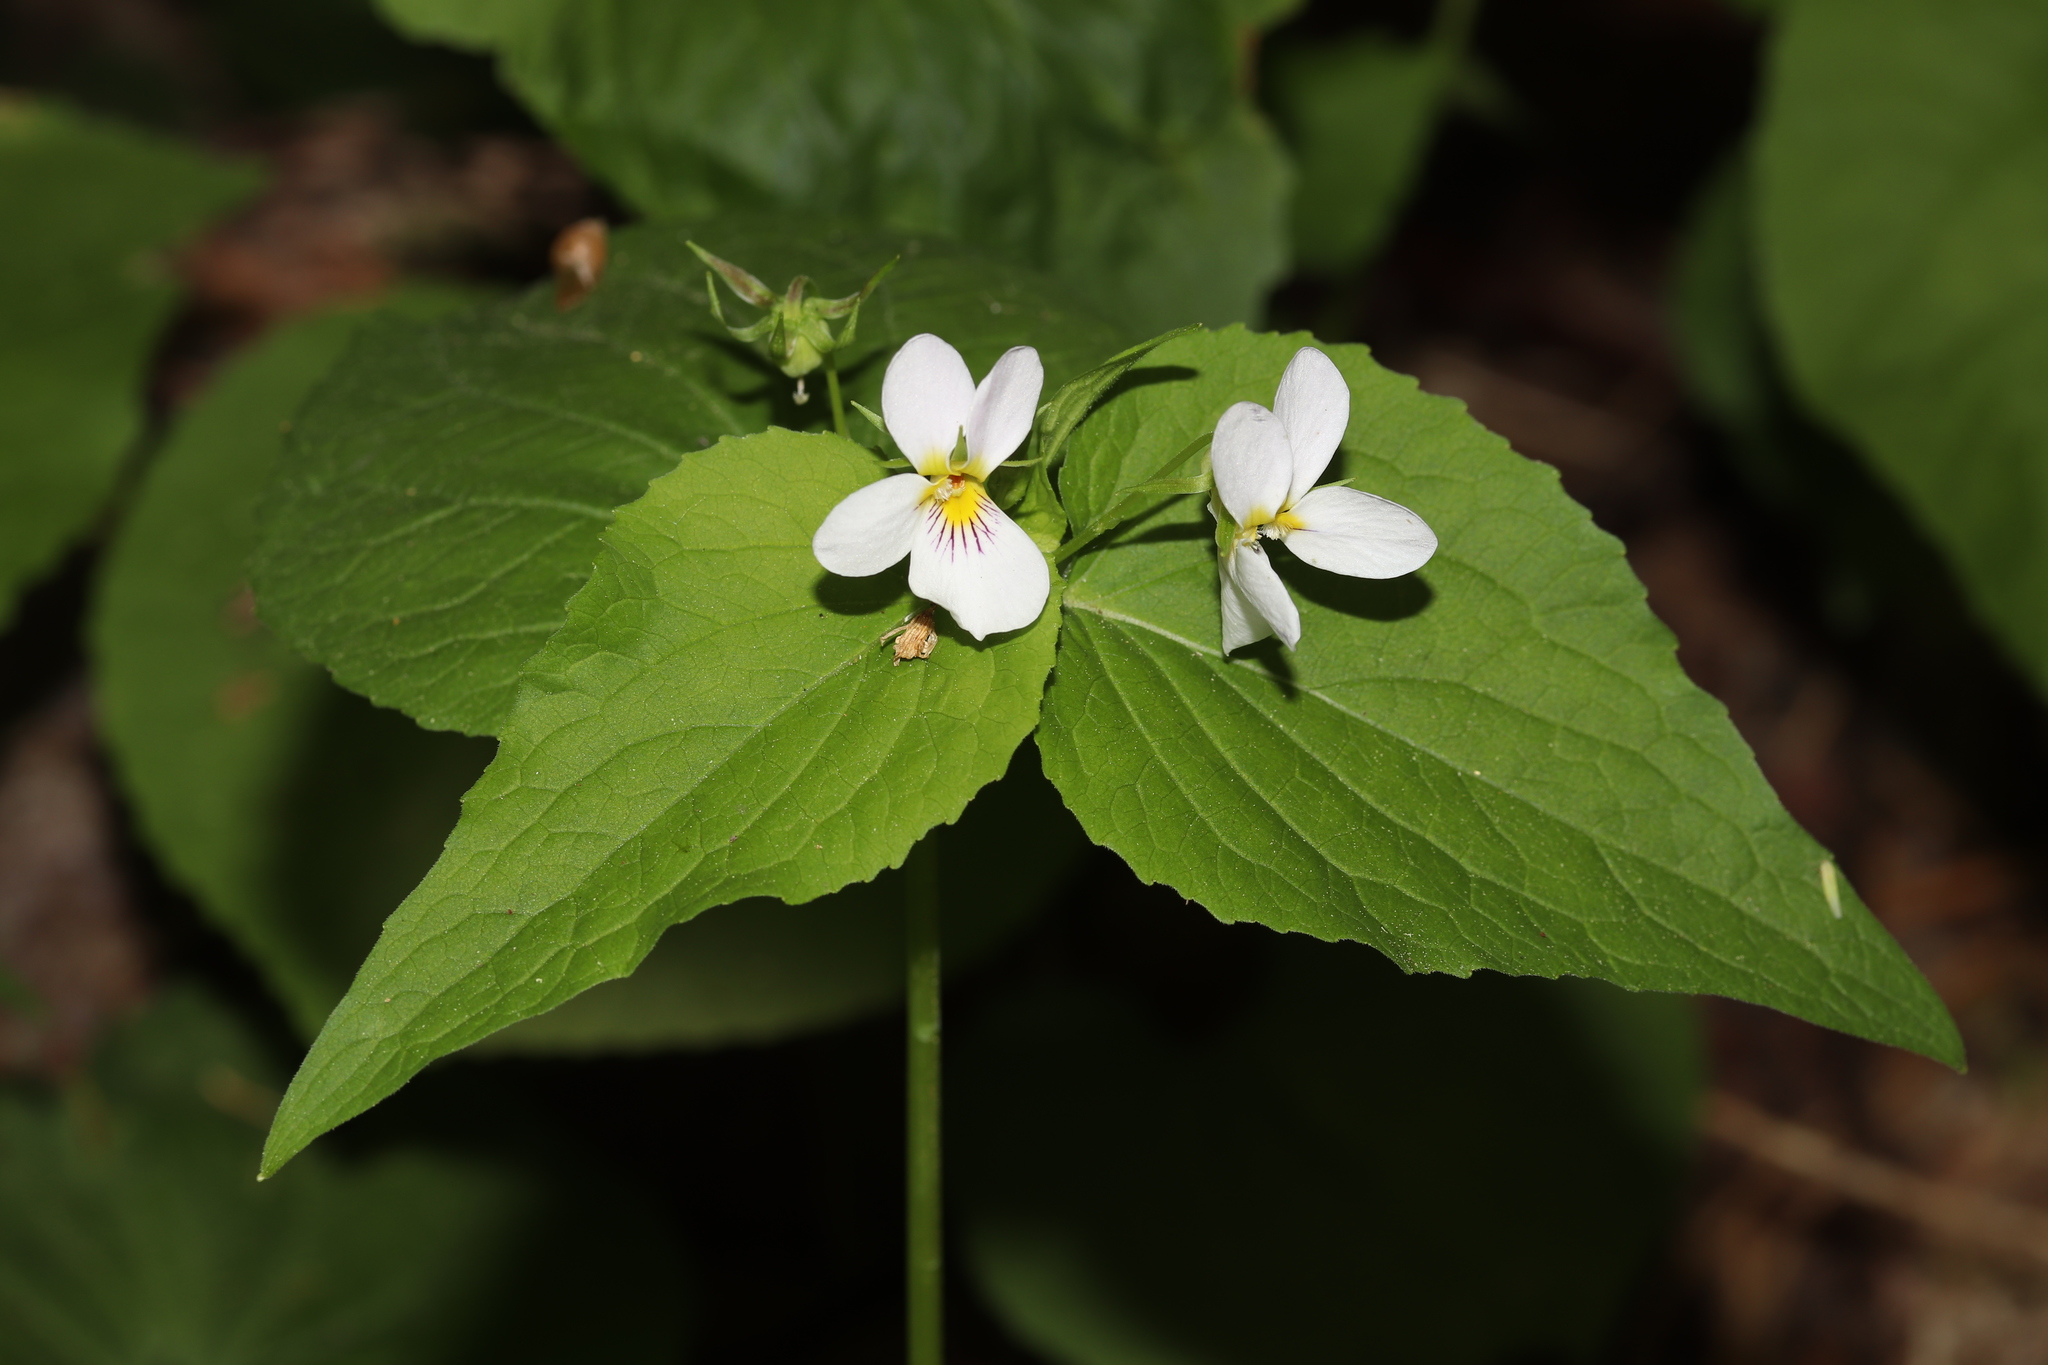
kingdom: Plantae
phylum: Tracheophyta
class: Magnoliopsida
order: Malpighiales
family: Violaceae
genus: Viola
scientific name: Viola canadensis
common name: Canada violet
